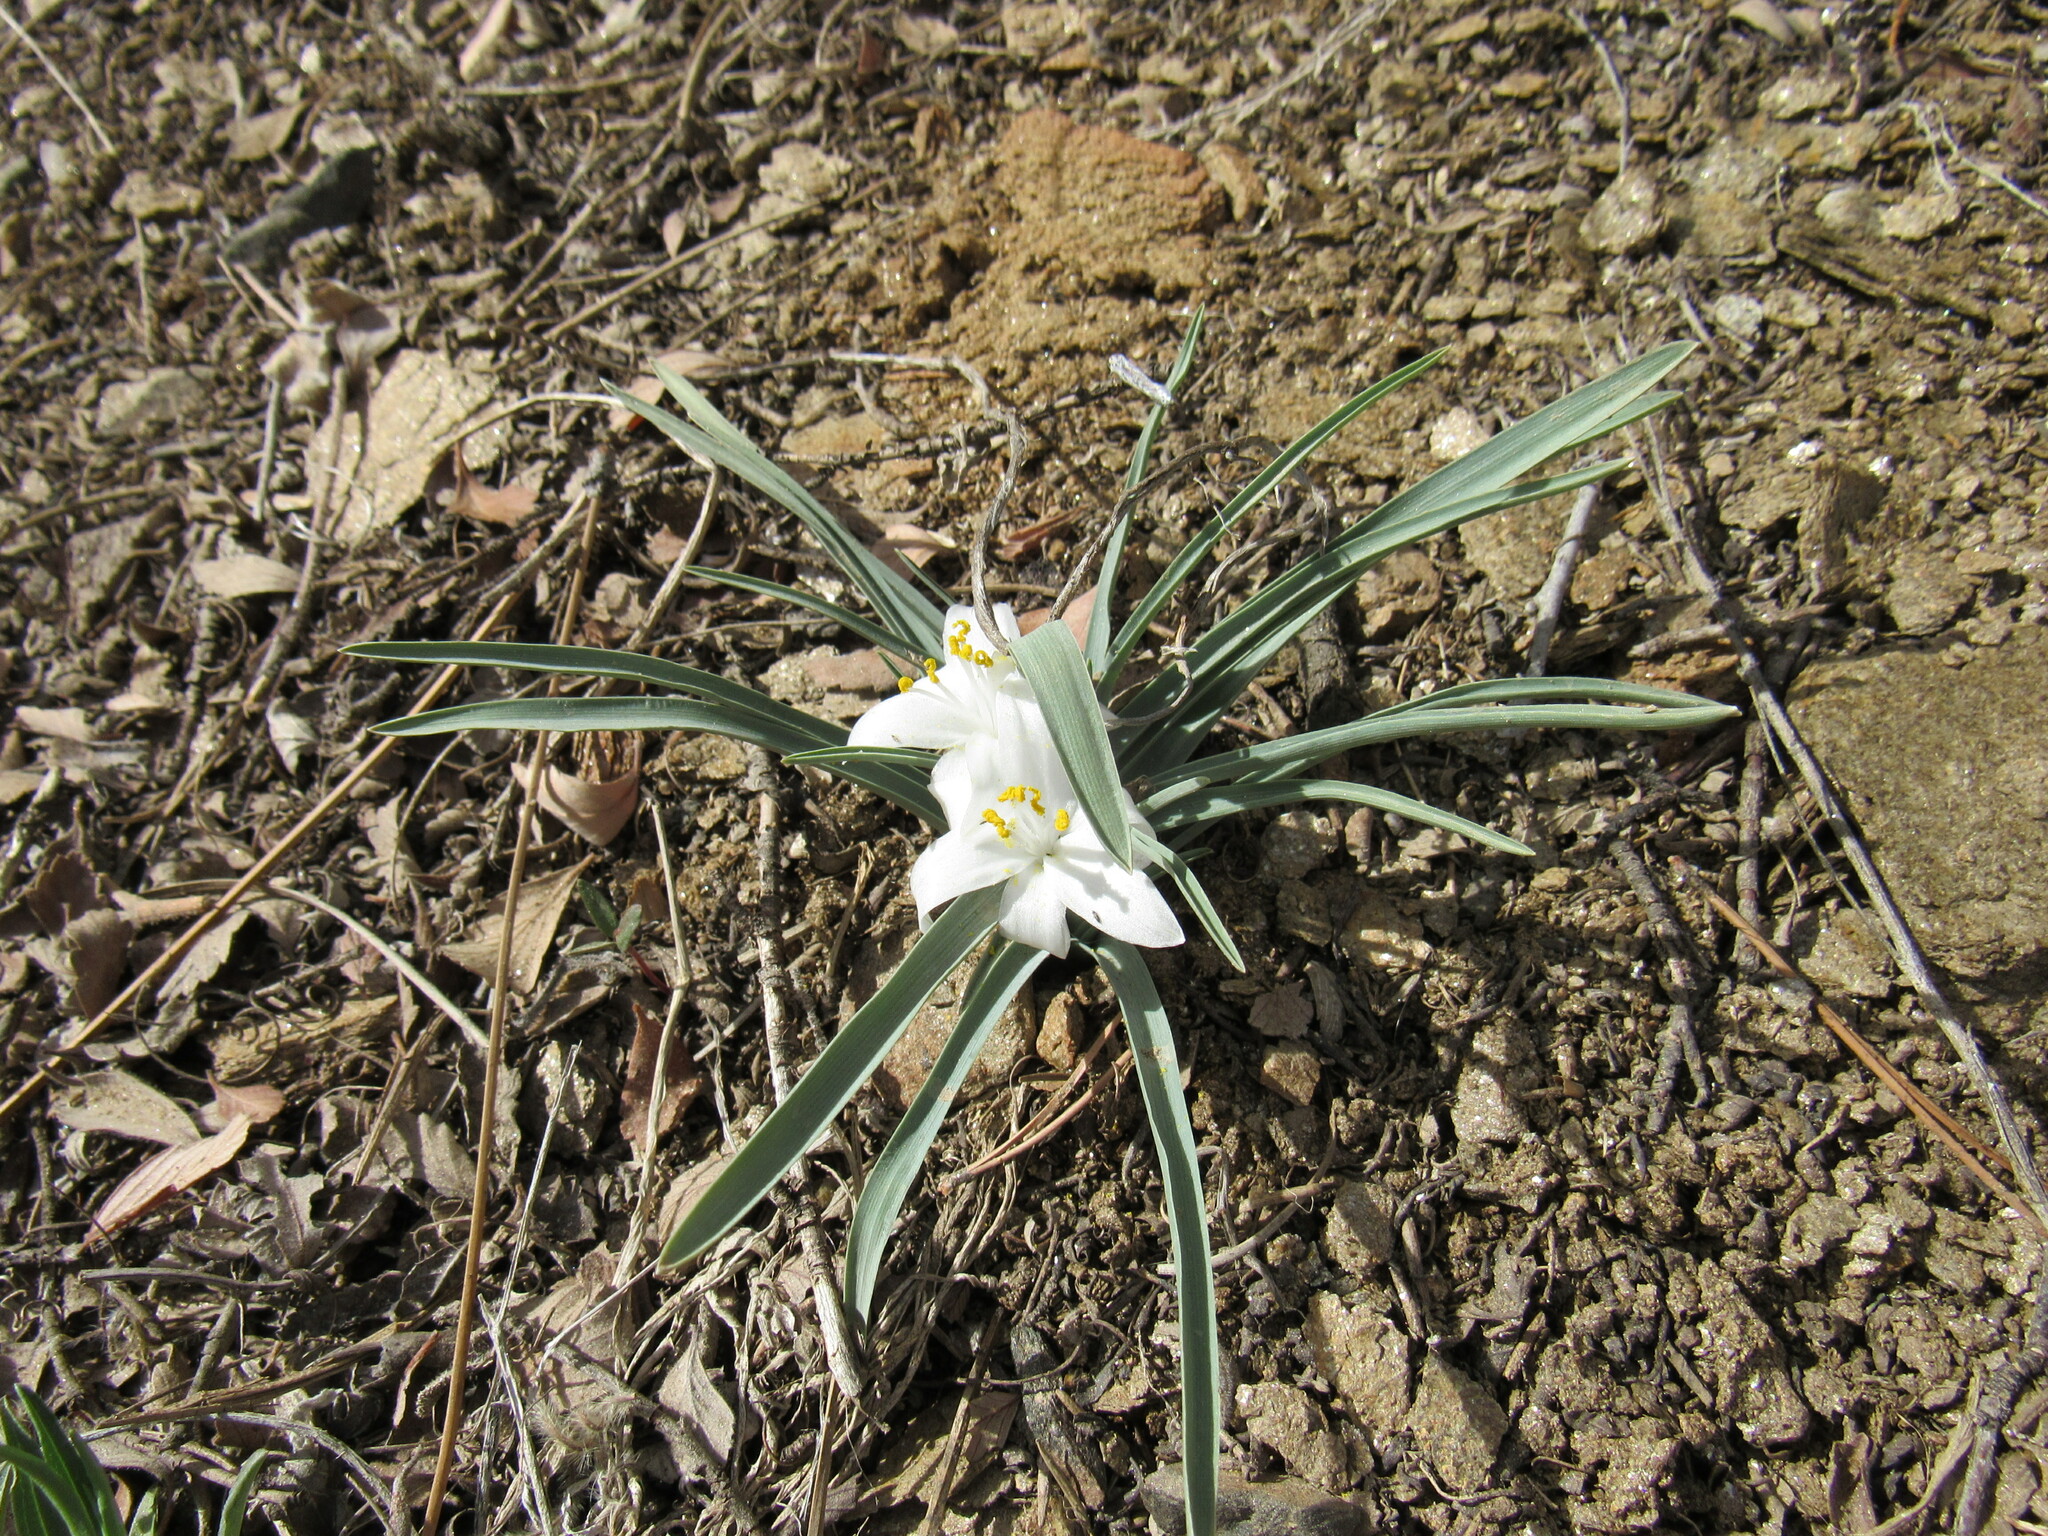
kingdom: Plantae
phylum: Tracheophyta
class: Liliopsida
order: Asparagales
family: Asparagaceae
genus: Leucocrinum
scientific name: Leucocrinum montanum
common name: Mountain-lily
